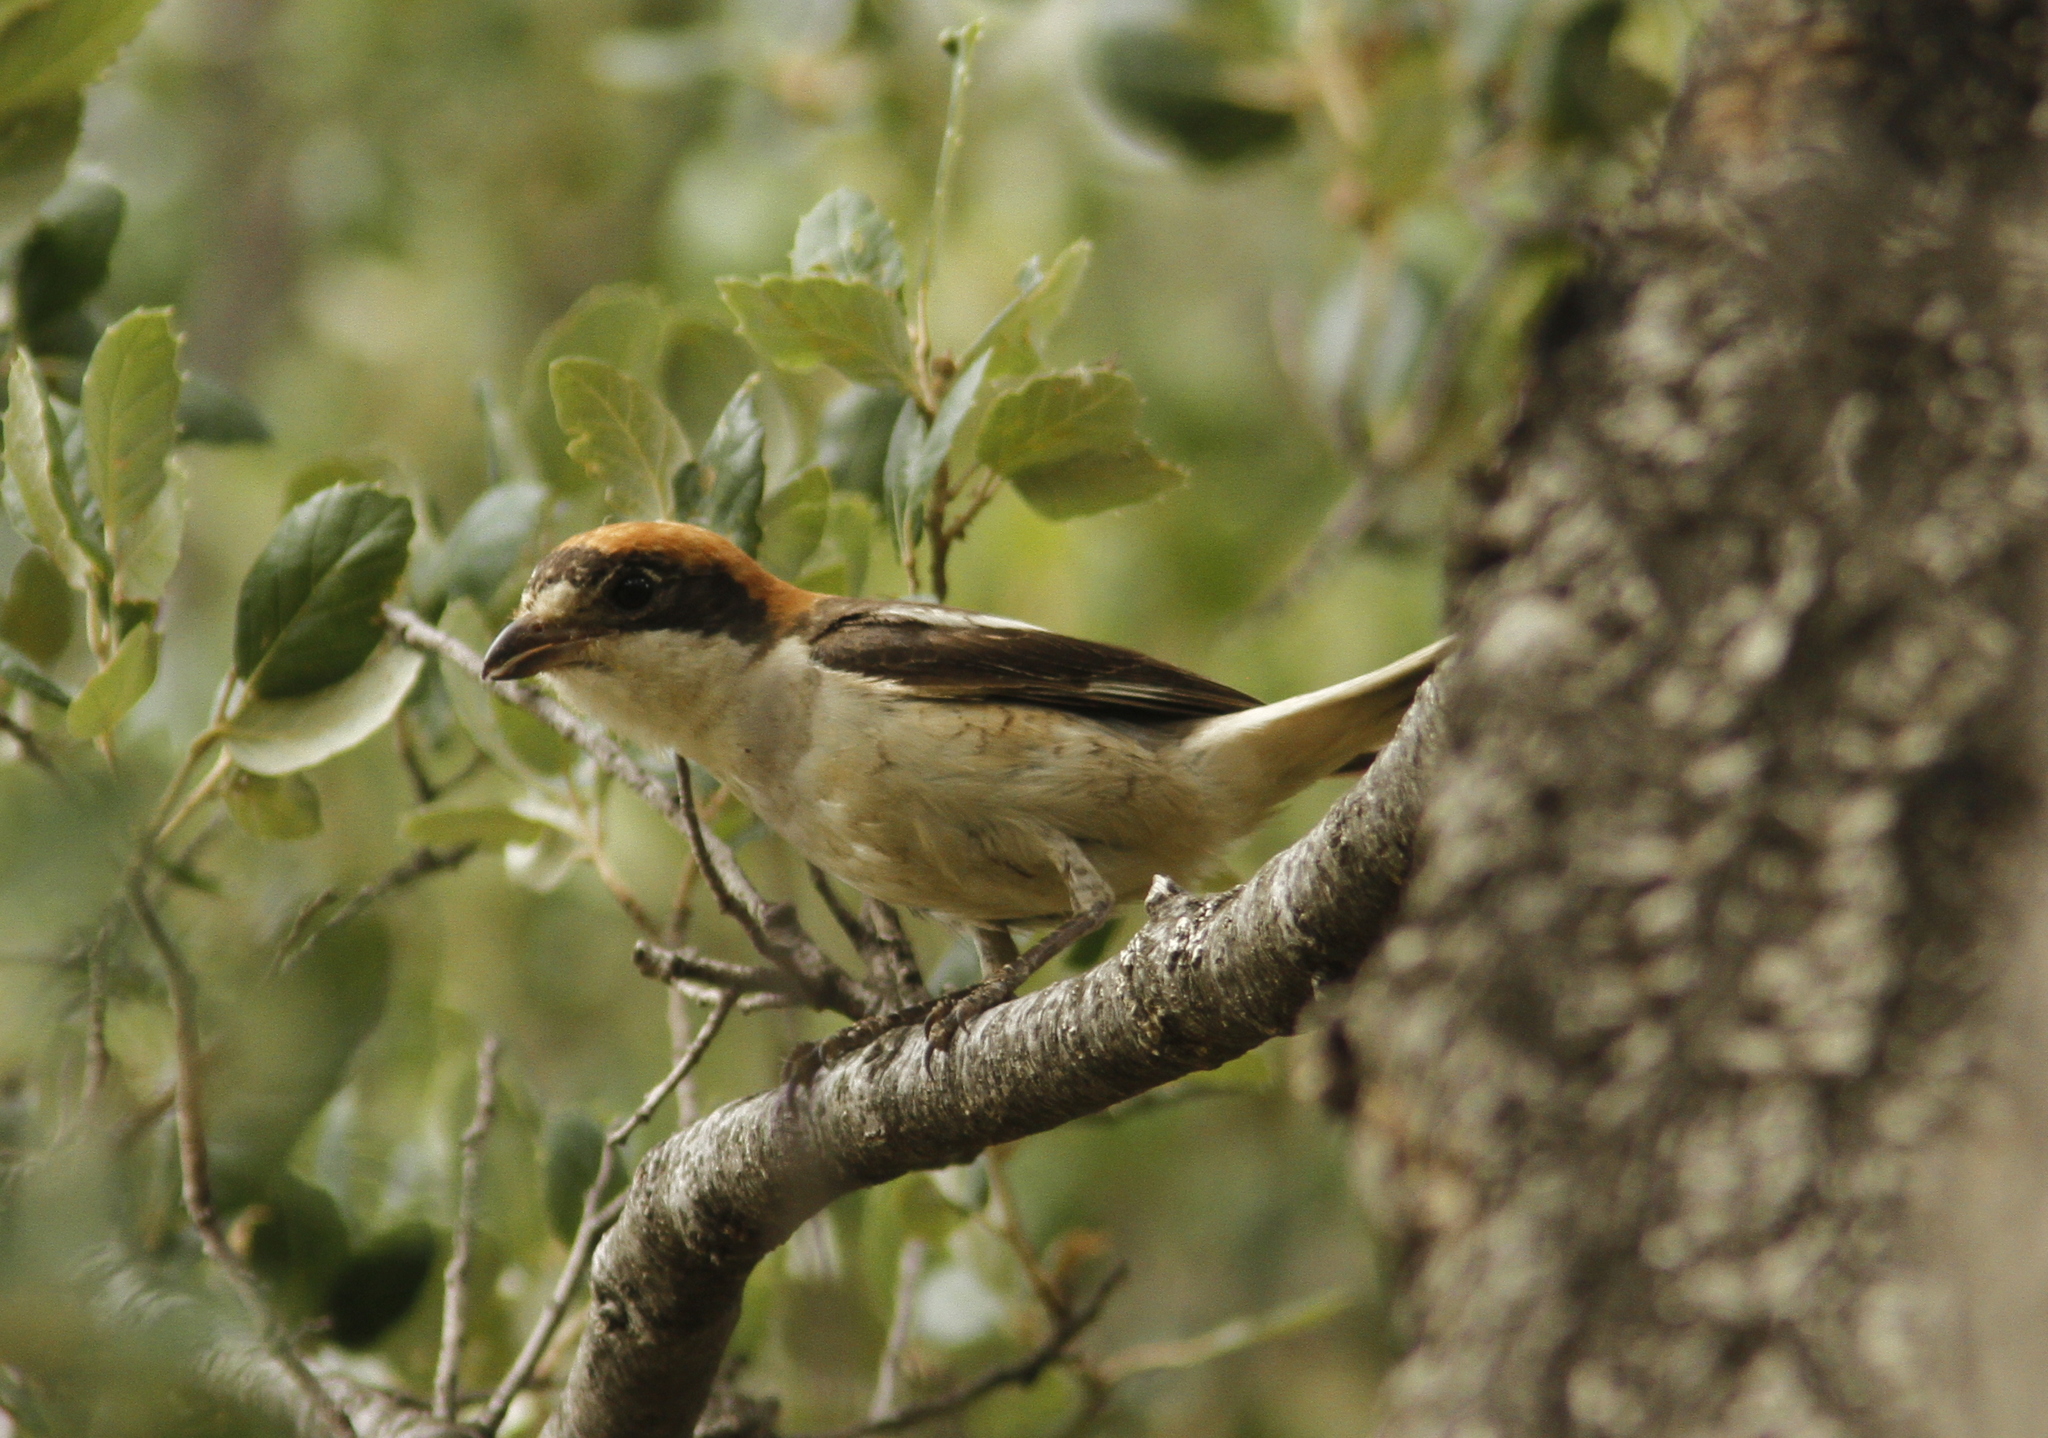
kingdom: Animalia
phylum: Chordata
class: Aves
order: Passeriformes
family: Laniidae
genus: Lanius
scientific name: Lanius senator
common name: Woodchat shrike
